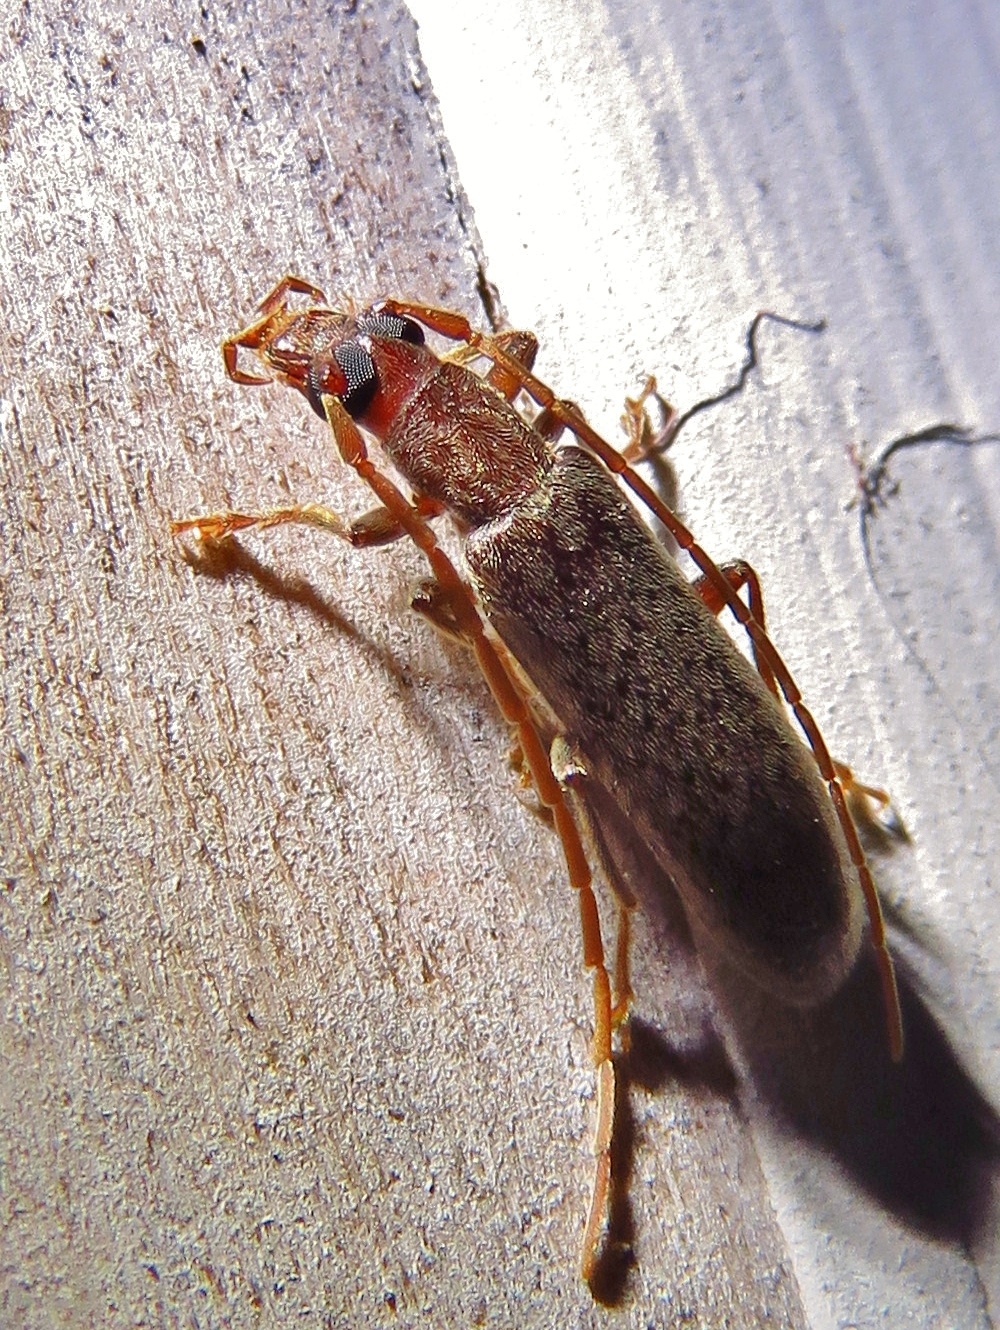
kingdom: Animalia
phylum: Arthropoda
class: Insecta
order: Coleoptera
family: Oedemeridae
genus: Sparedrus
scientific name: Sparedrus aspersus
